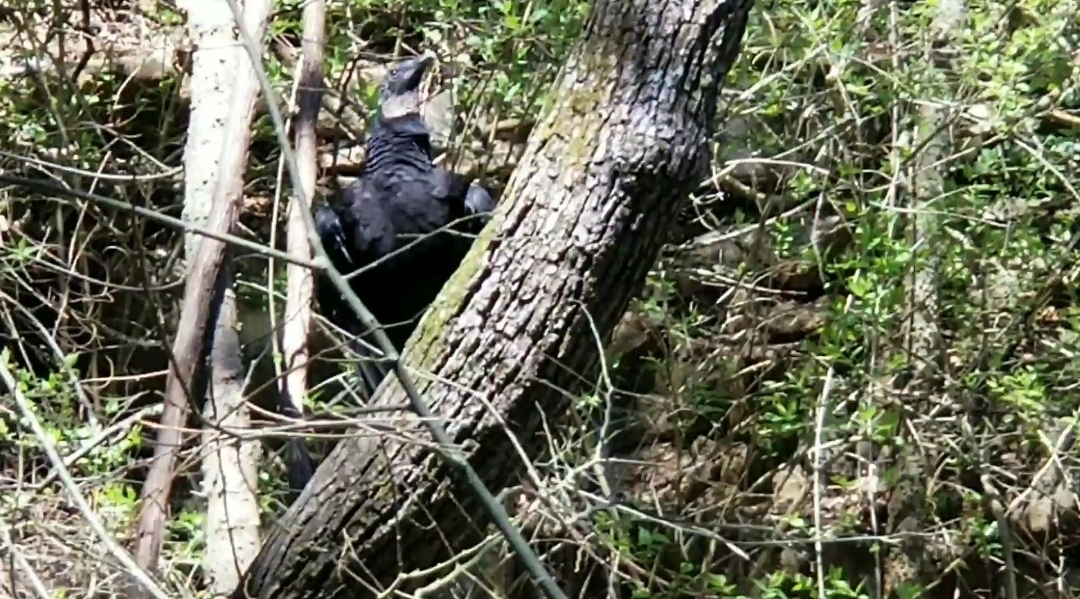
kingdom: Animalia
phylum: Chordata
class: Aves
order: Accipitriformes
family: Cathartidae
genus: Coragyps
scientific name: Coragyps atratus
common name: Black vulture
